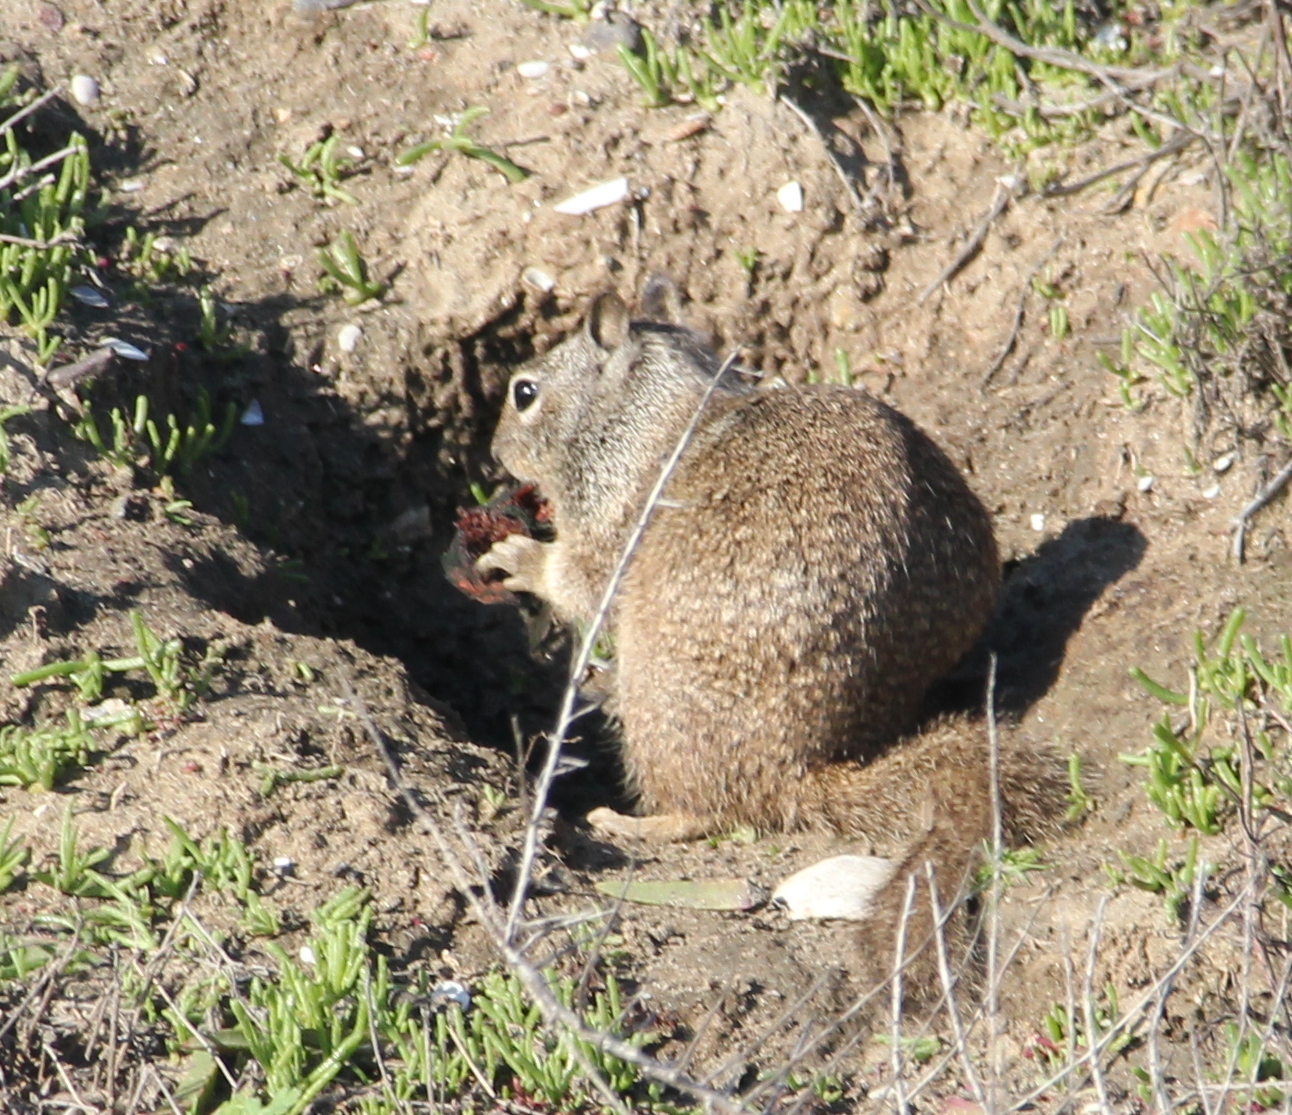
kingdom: Animalia
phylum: Chordata
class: Mammalia
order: Rodentia
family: Sciuridae
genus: Otospermophilus
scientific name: Otospermophilus beecheyi
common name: California ground squirrel
